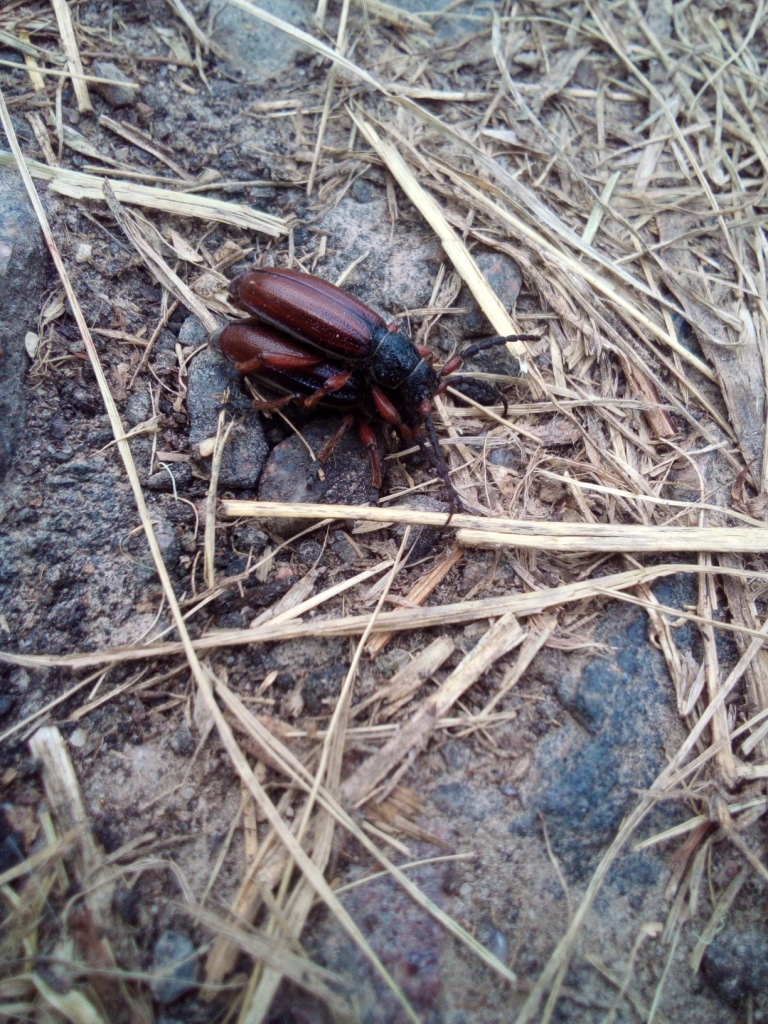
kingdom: Animalia
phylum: Arthropoda
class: Insecta
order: Coleoptera
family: Cerambycidae
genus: Dorcadion
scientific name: Dorcadion fulvum
